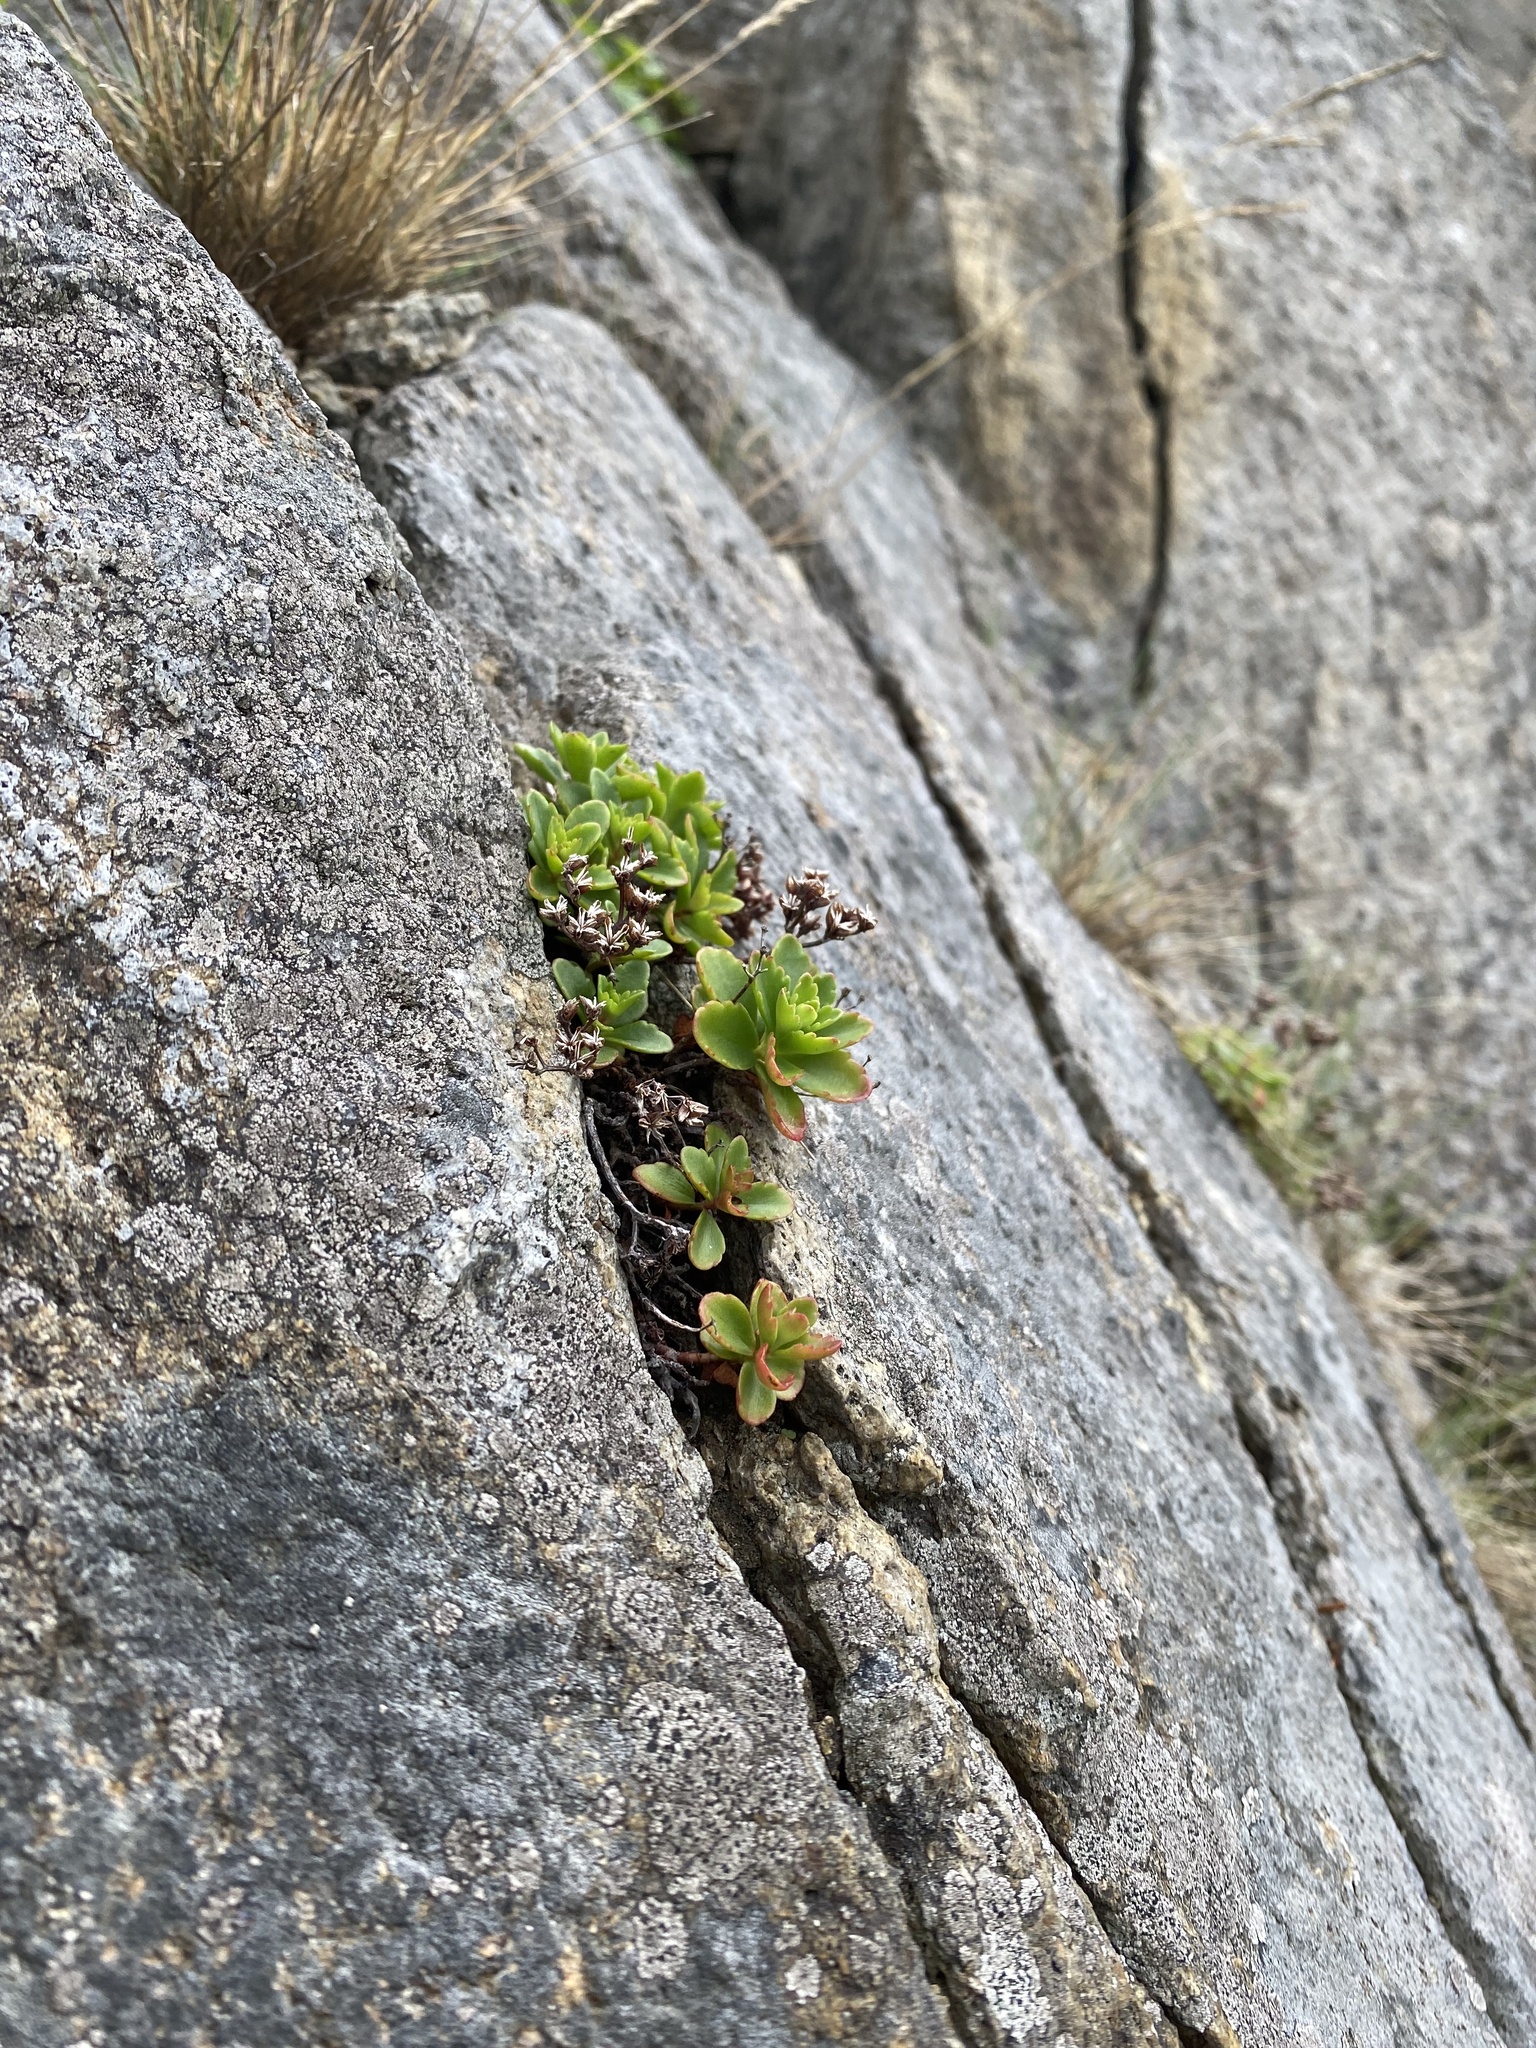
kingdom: Plantae
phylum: Tracheophyta
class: Magnoliopsida
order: Saxifragales
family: Crassulaceae
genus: Phedimus
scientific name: Phedimus kamtschaticus
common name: Orange stonecrop
